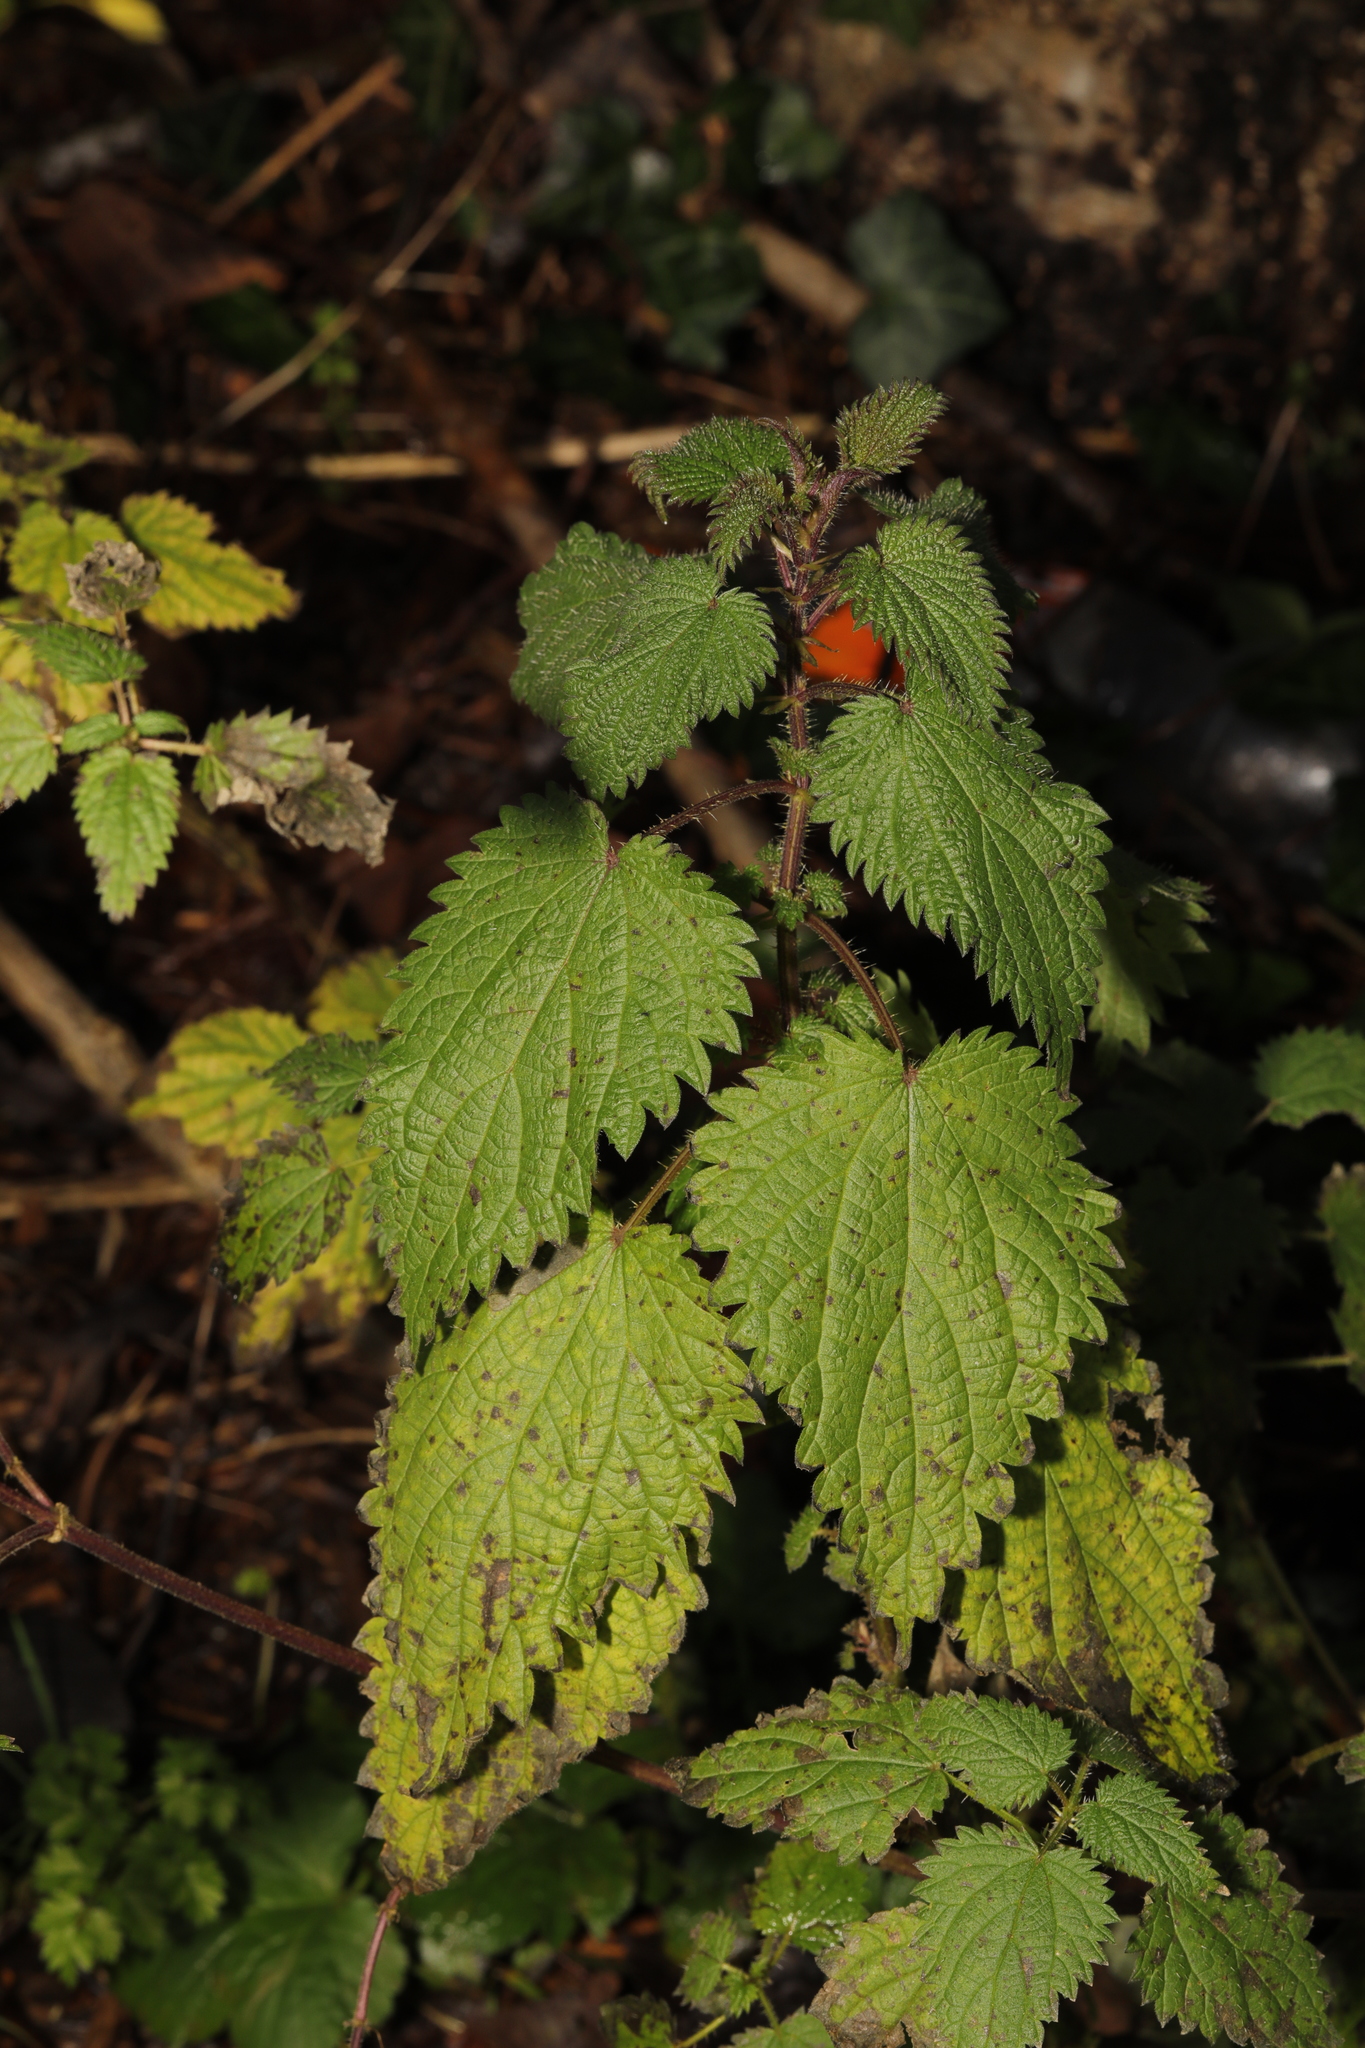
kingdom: Plantae
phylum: Tracheophyta
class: Magnoliopsida
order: Rosales
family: Urticaceae
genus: Urtica
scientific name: Urtica dioica
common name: Common nettle
